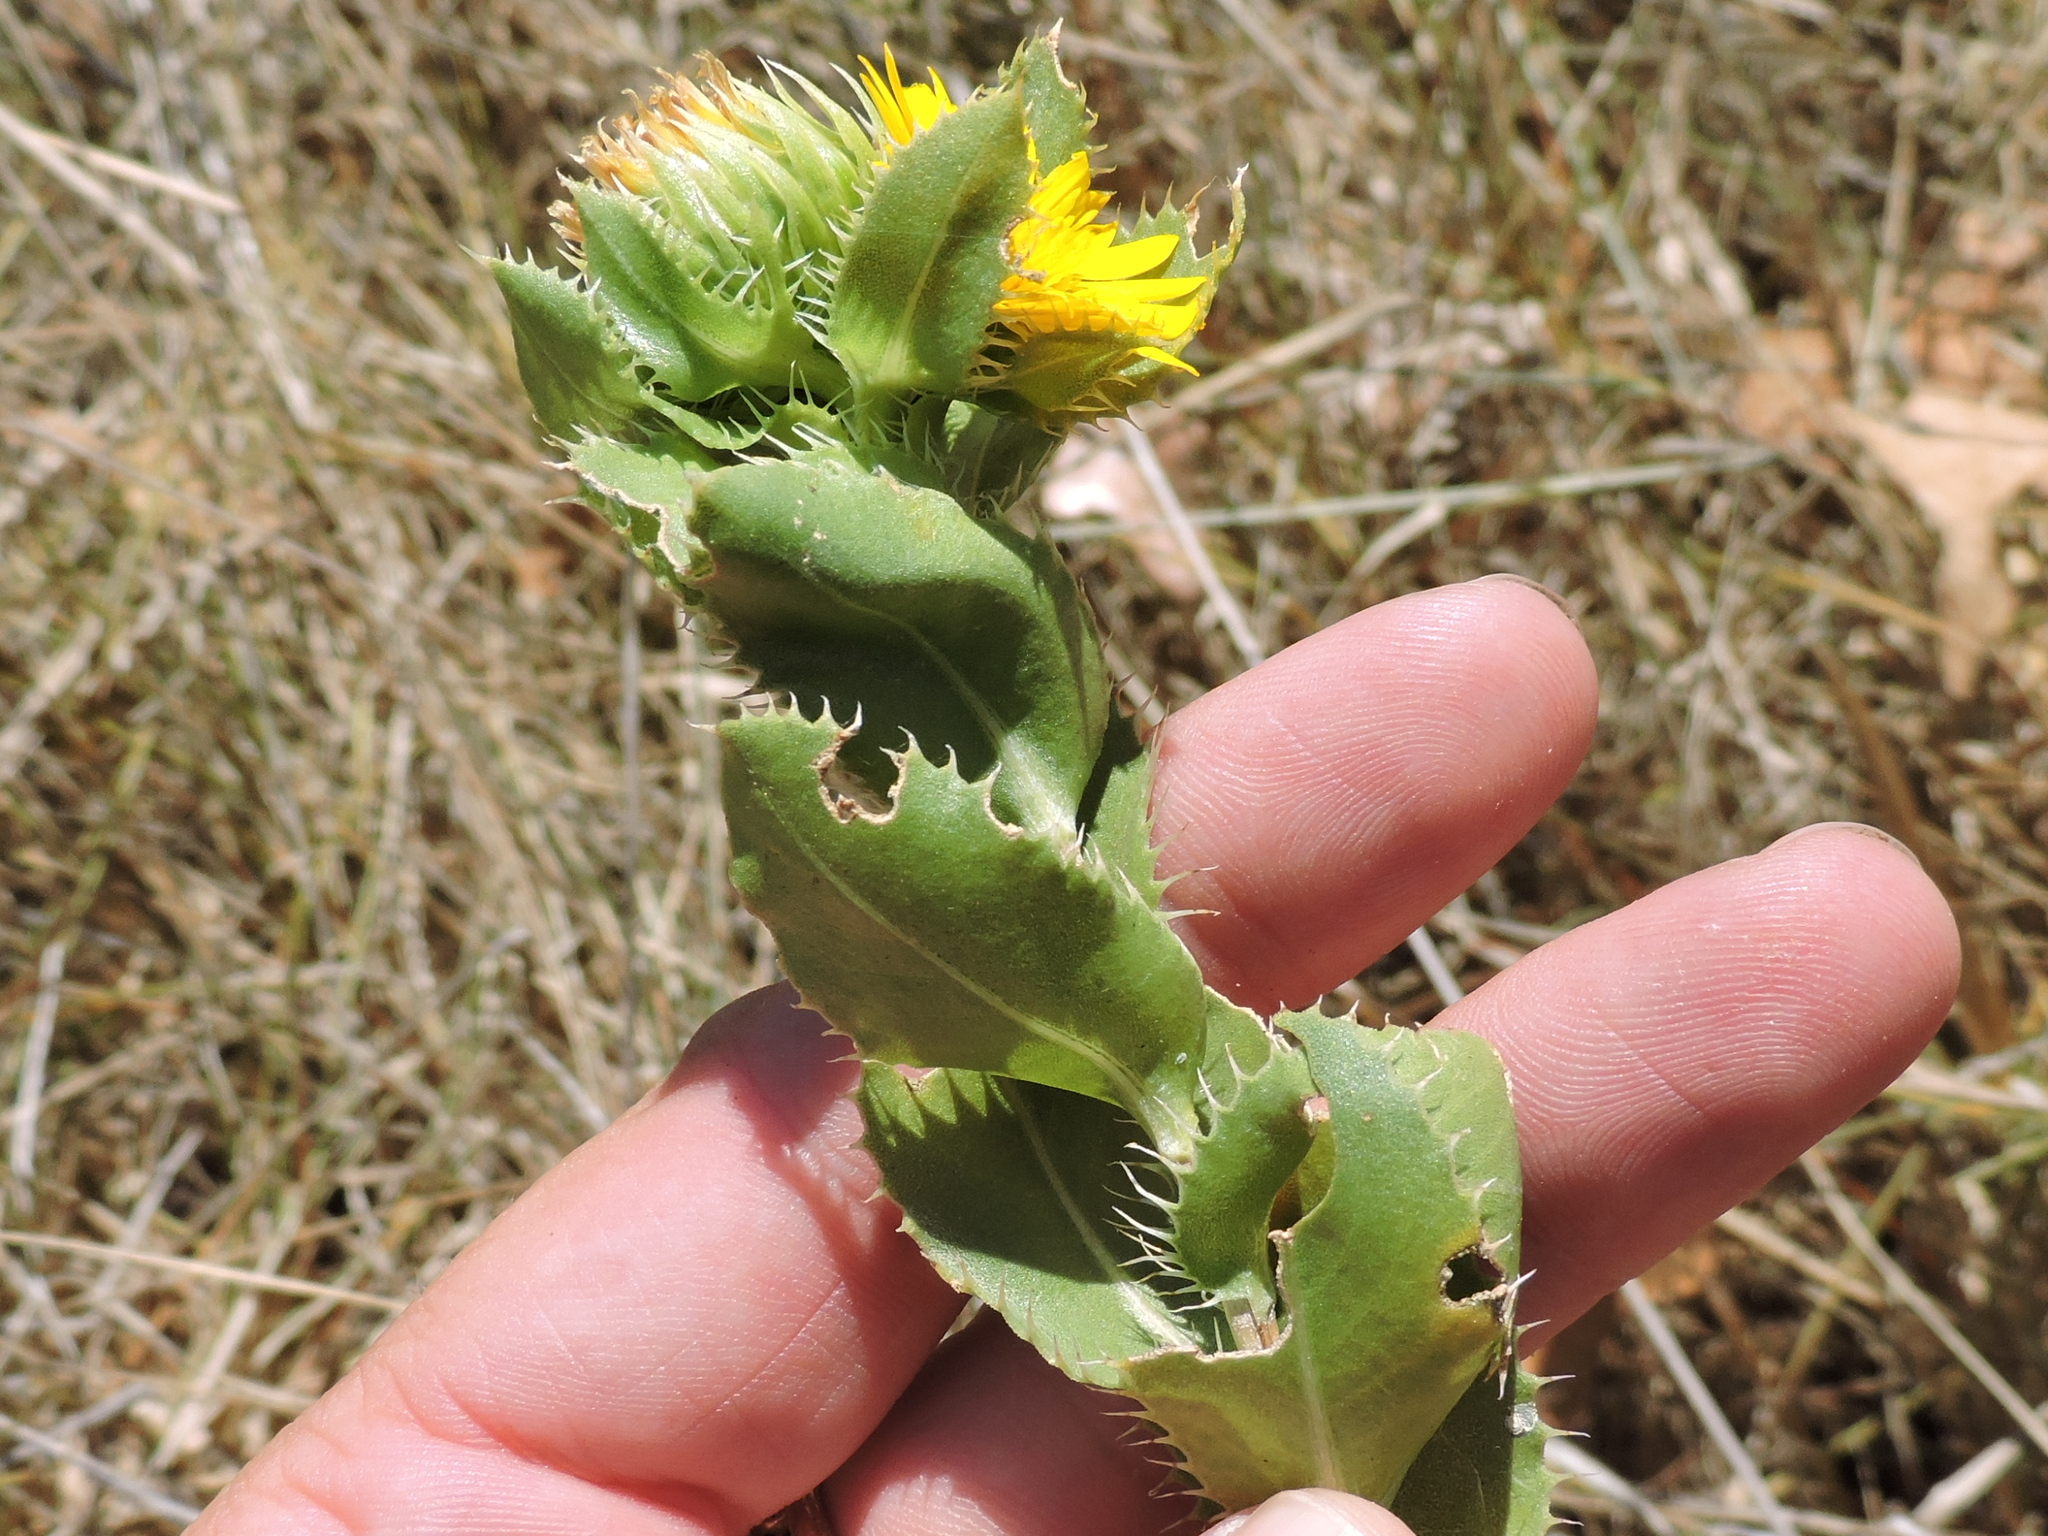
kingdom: Plantae
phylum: Tracheophyta
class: Magnoliopsida
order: Asterales
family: Asteraceae
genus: Grindelia
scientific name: Grindelia ciliata
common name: Goldenweed
